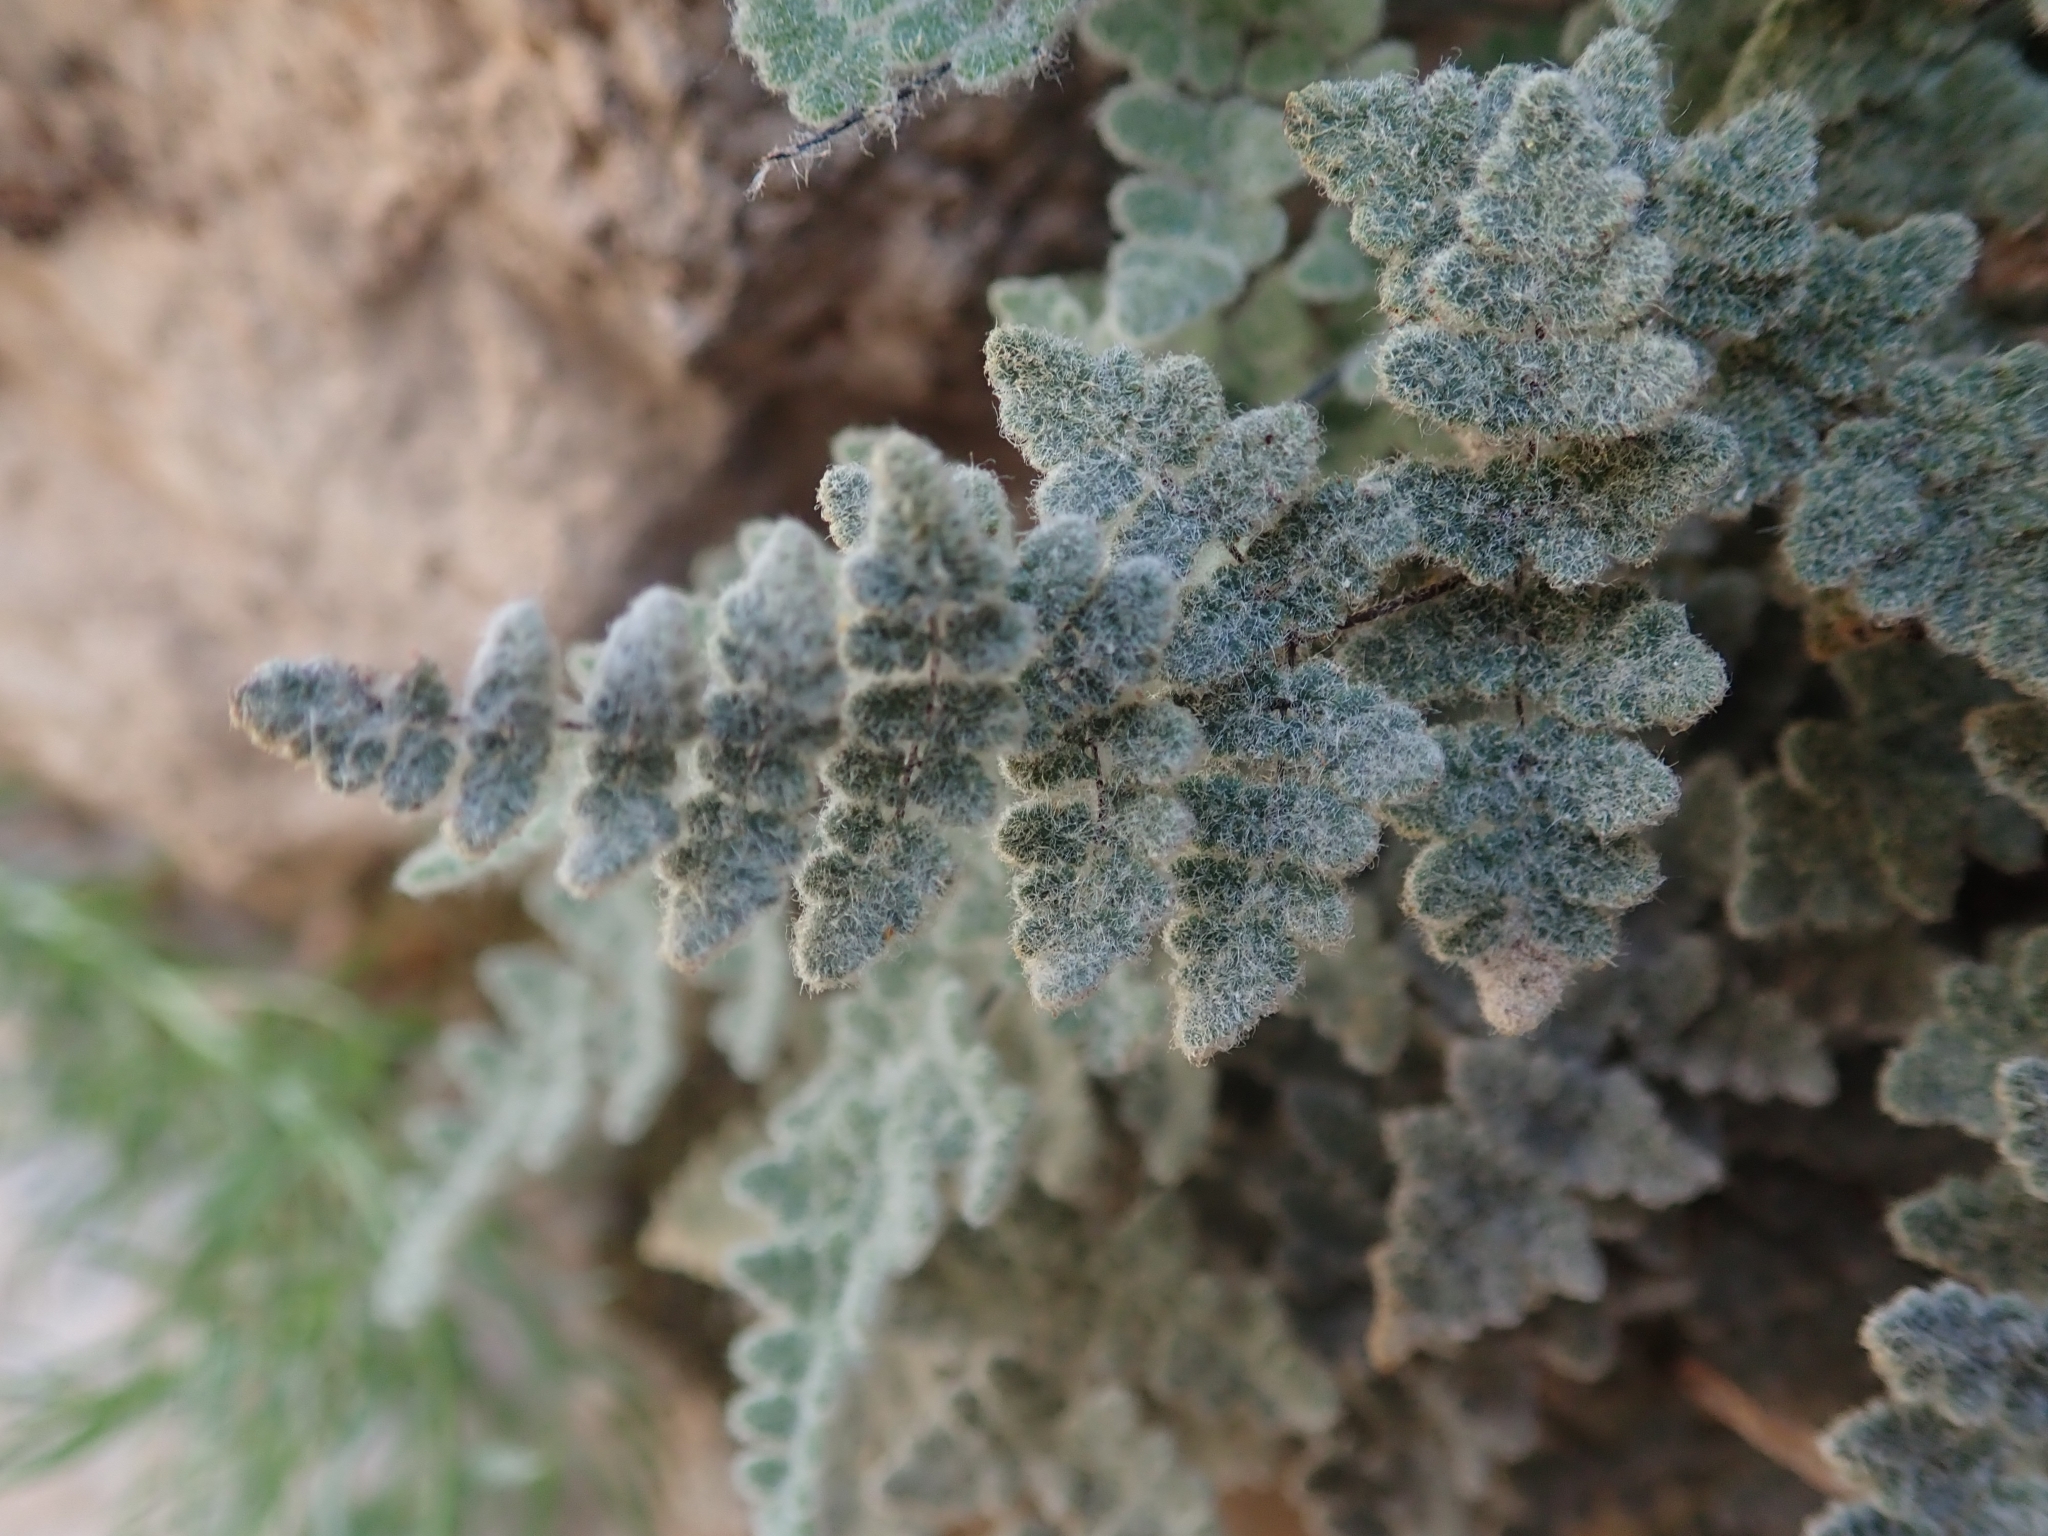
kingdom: Plantae
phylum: Tracheophyta
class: Polypodiopsida
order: Polypodiales
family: Pteridaceae
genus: Myriopteris
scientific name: Myriopteris parryi
